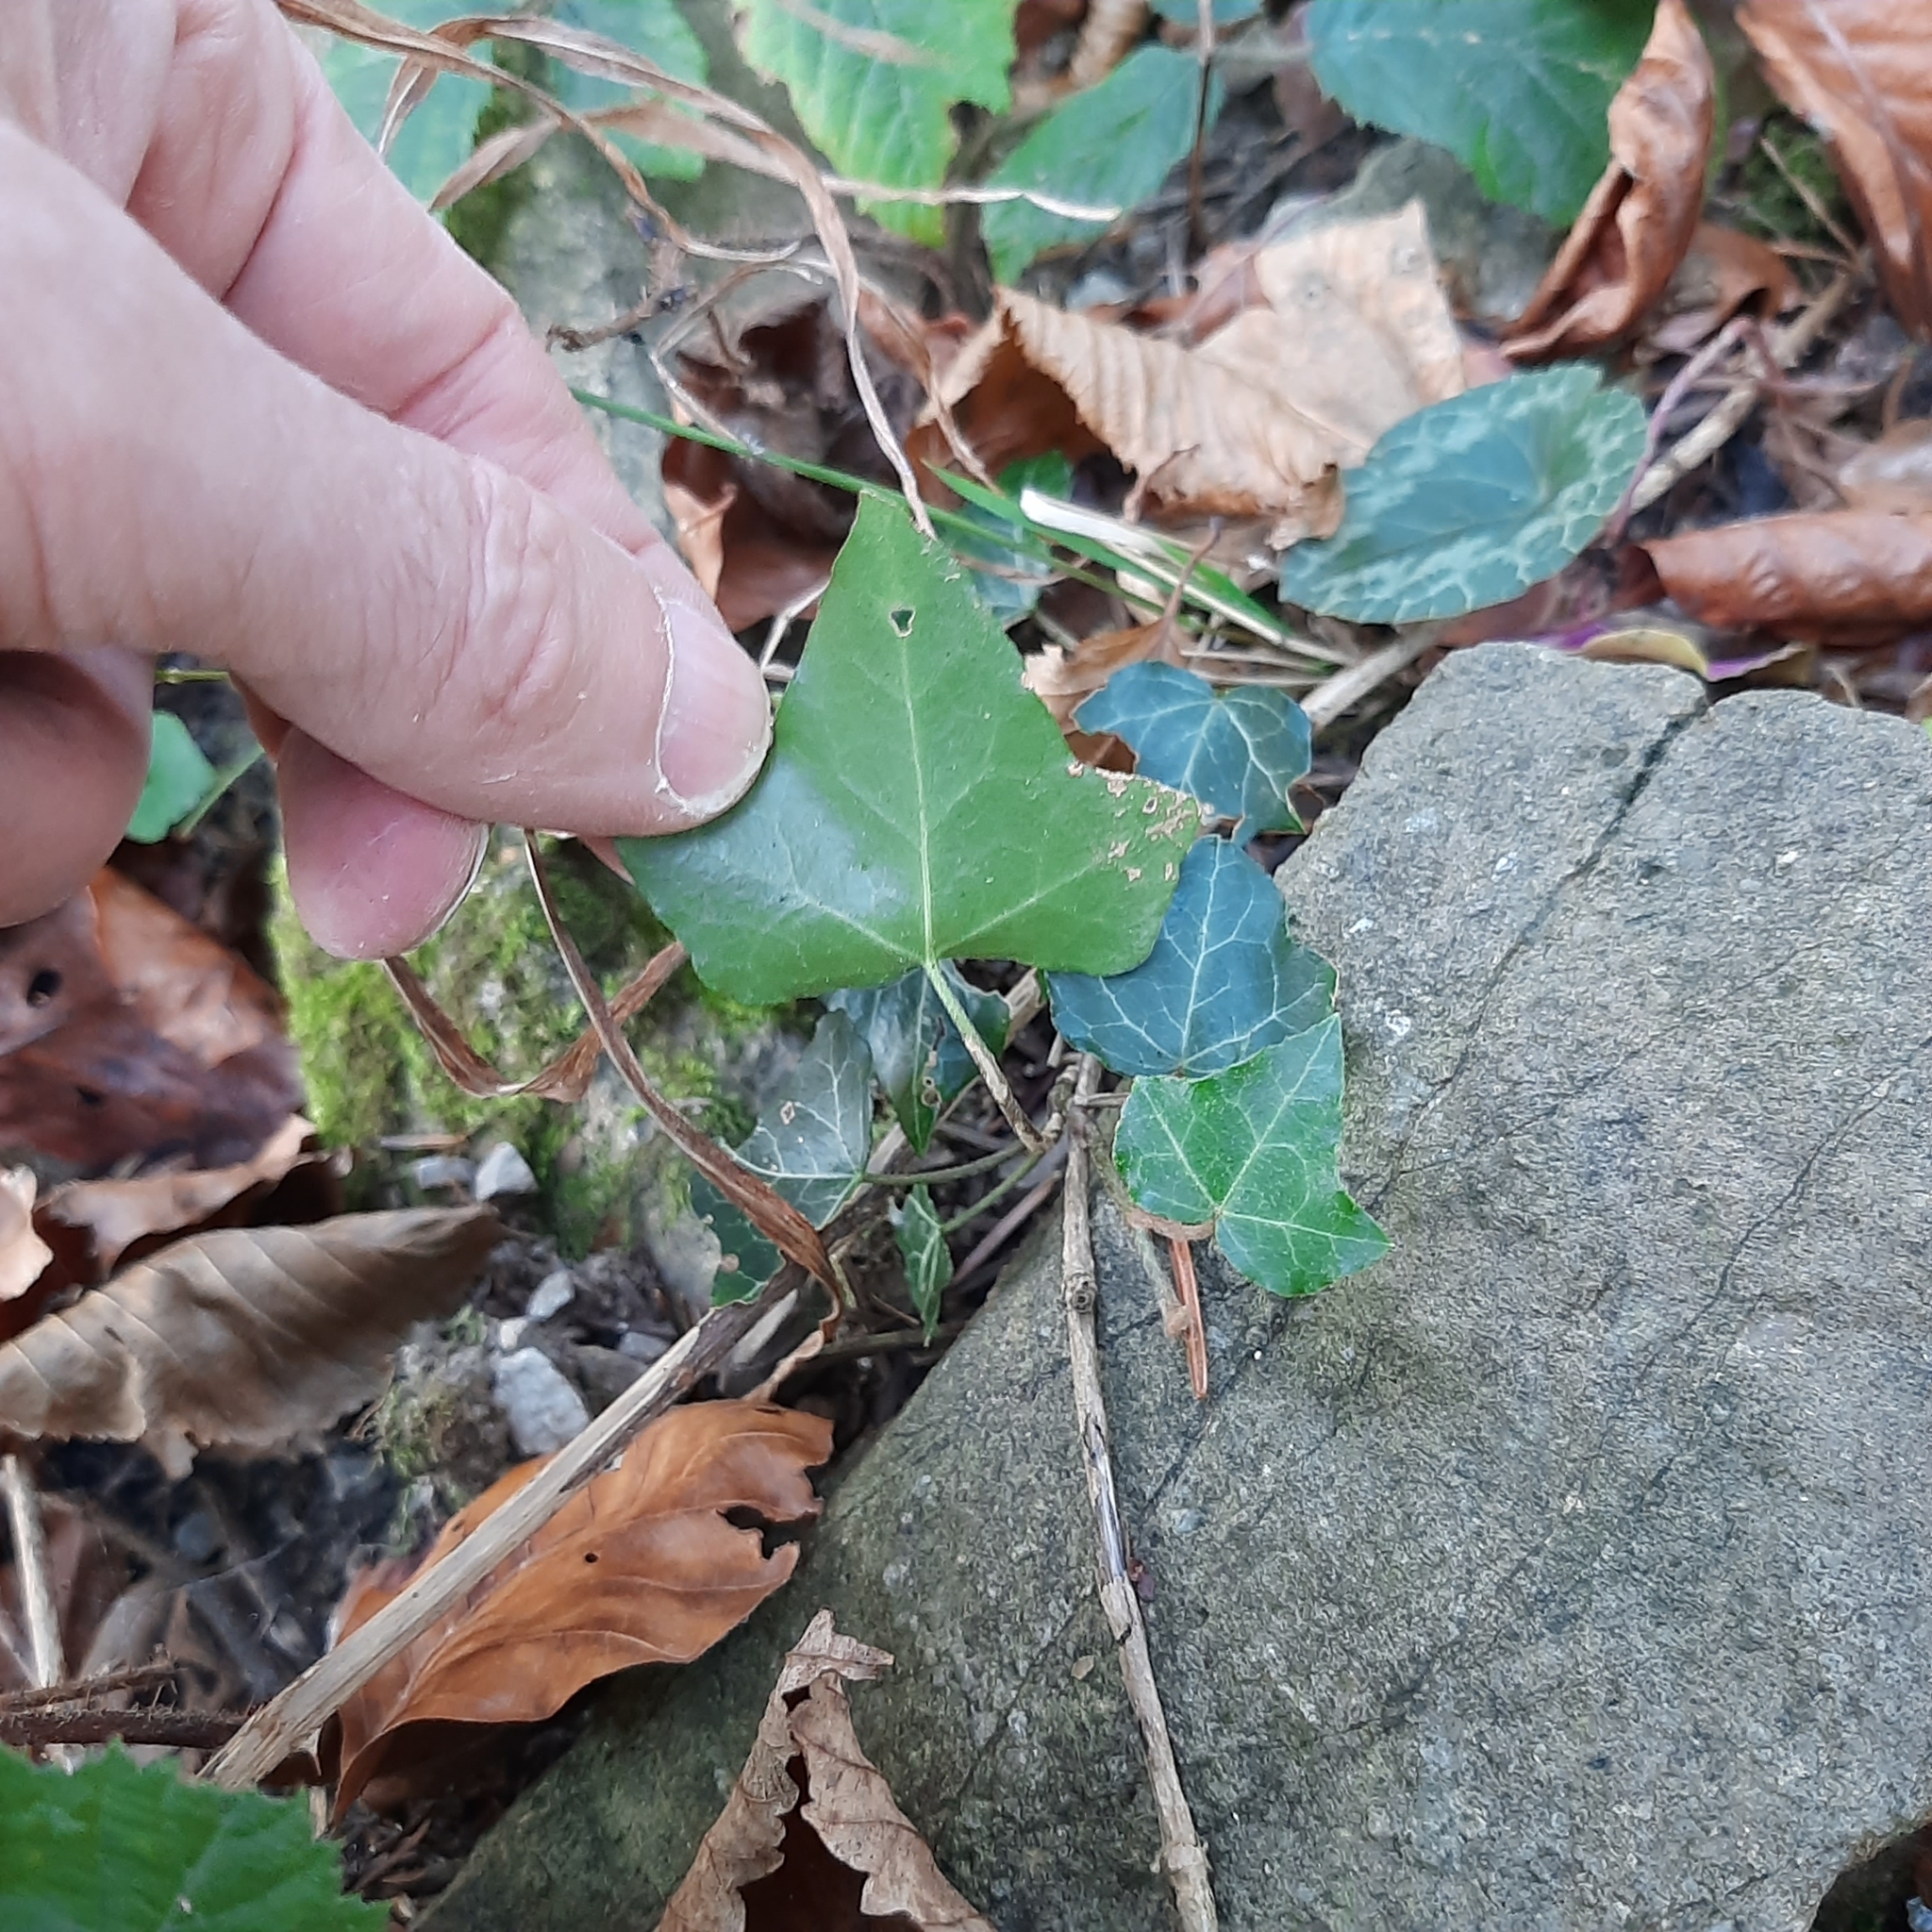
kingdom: Plantae
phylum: Tracheophyta
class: Magnoliopsida
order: Apiales
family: Araliaceae
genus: Hedera
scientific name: Hedera helix
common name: Ivy
